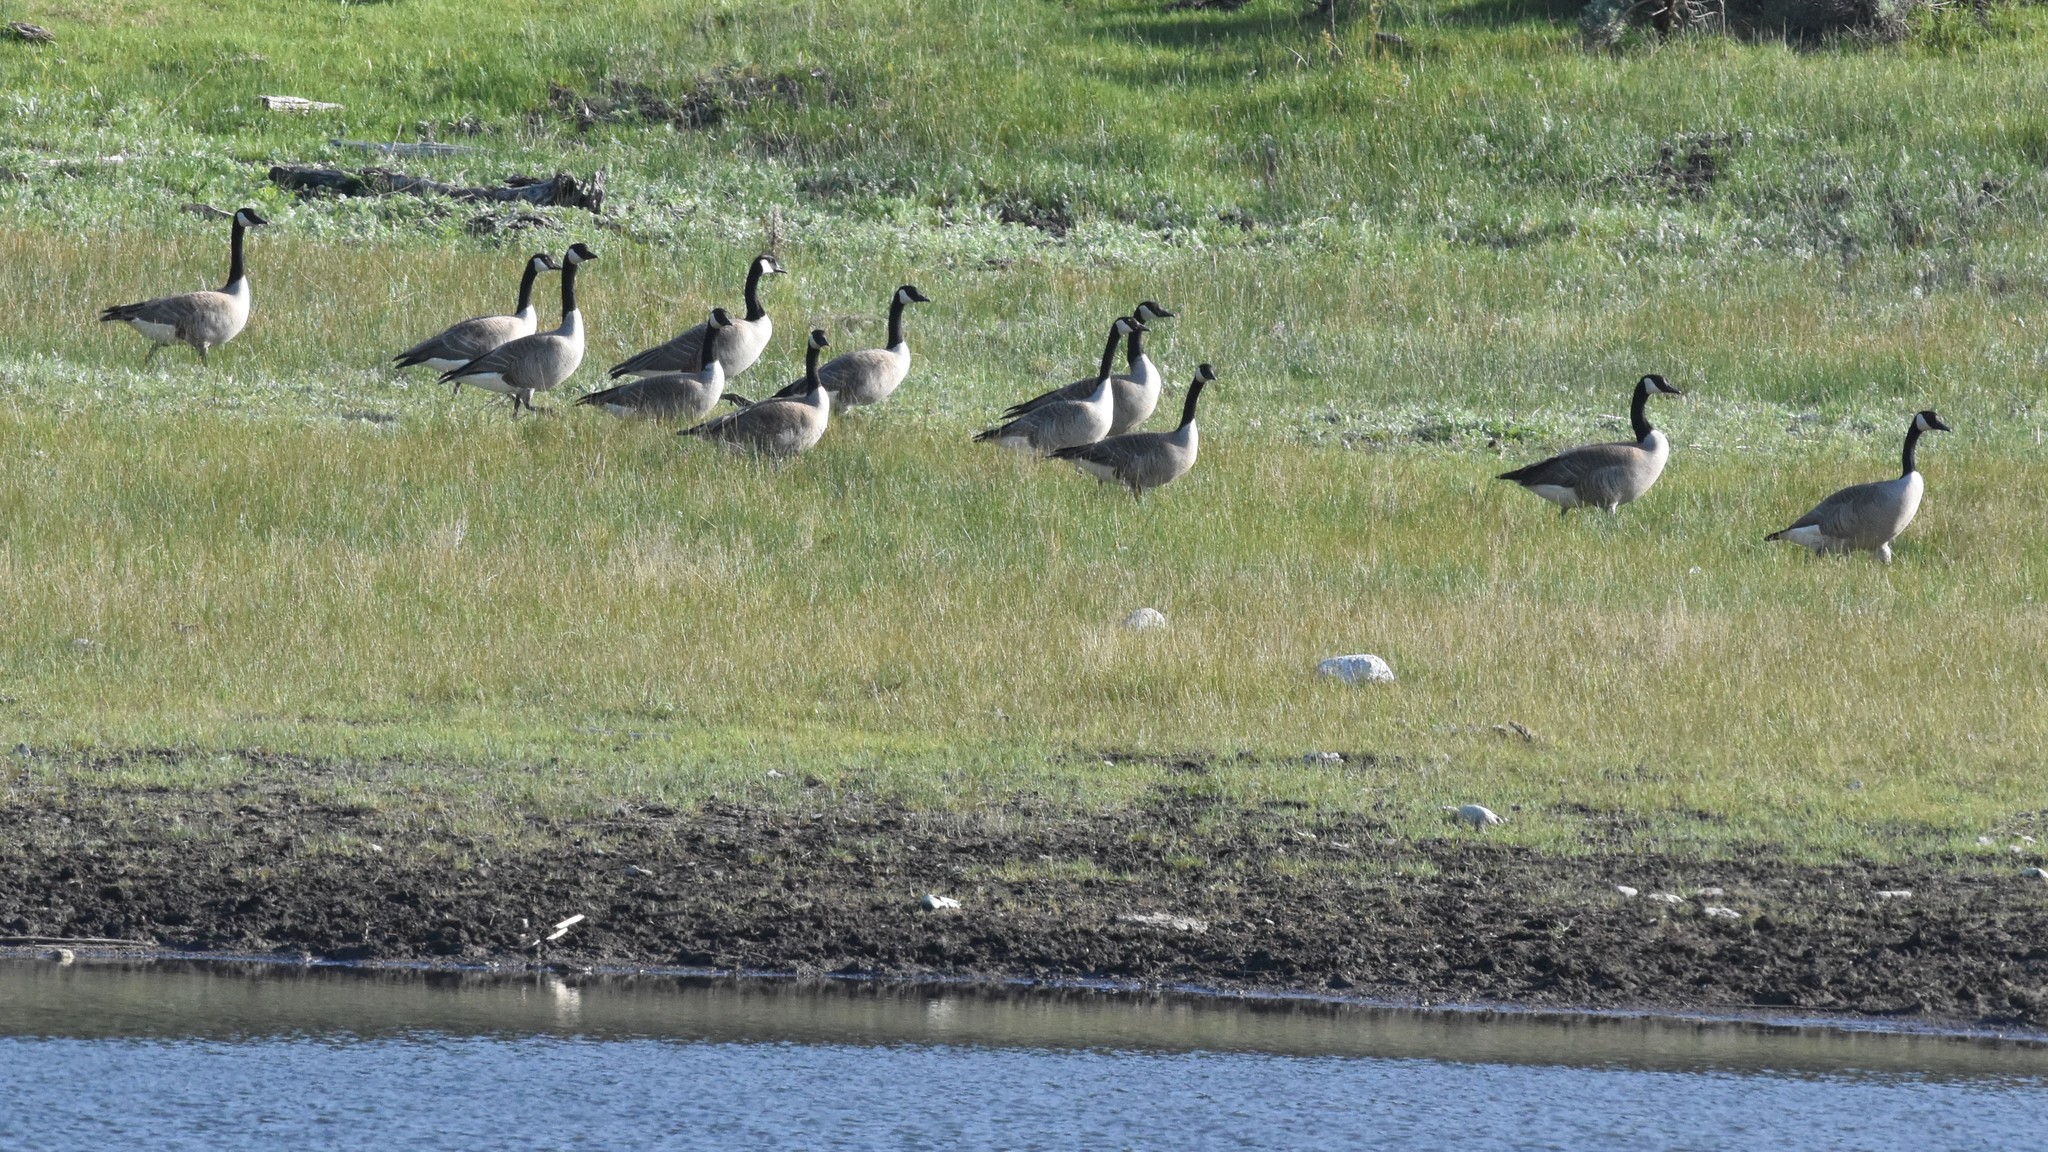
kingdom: Animalia
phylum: Chordata
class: Aves
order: Anseriformes
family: Anatidae
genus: Branta
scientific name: Branta canadensis
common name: Canada goose
